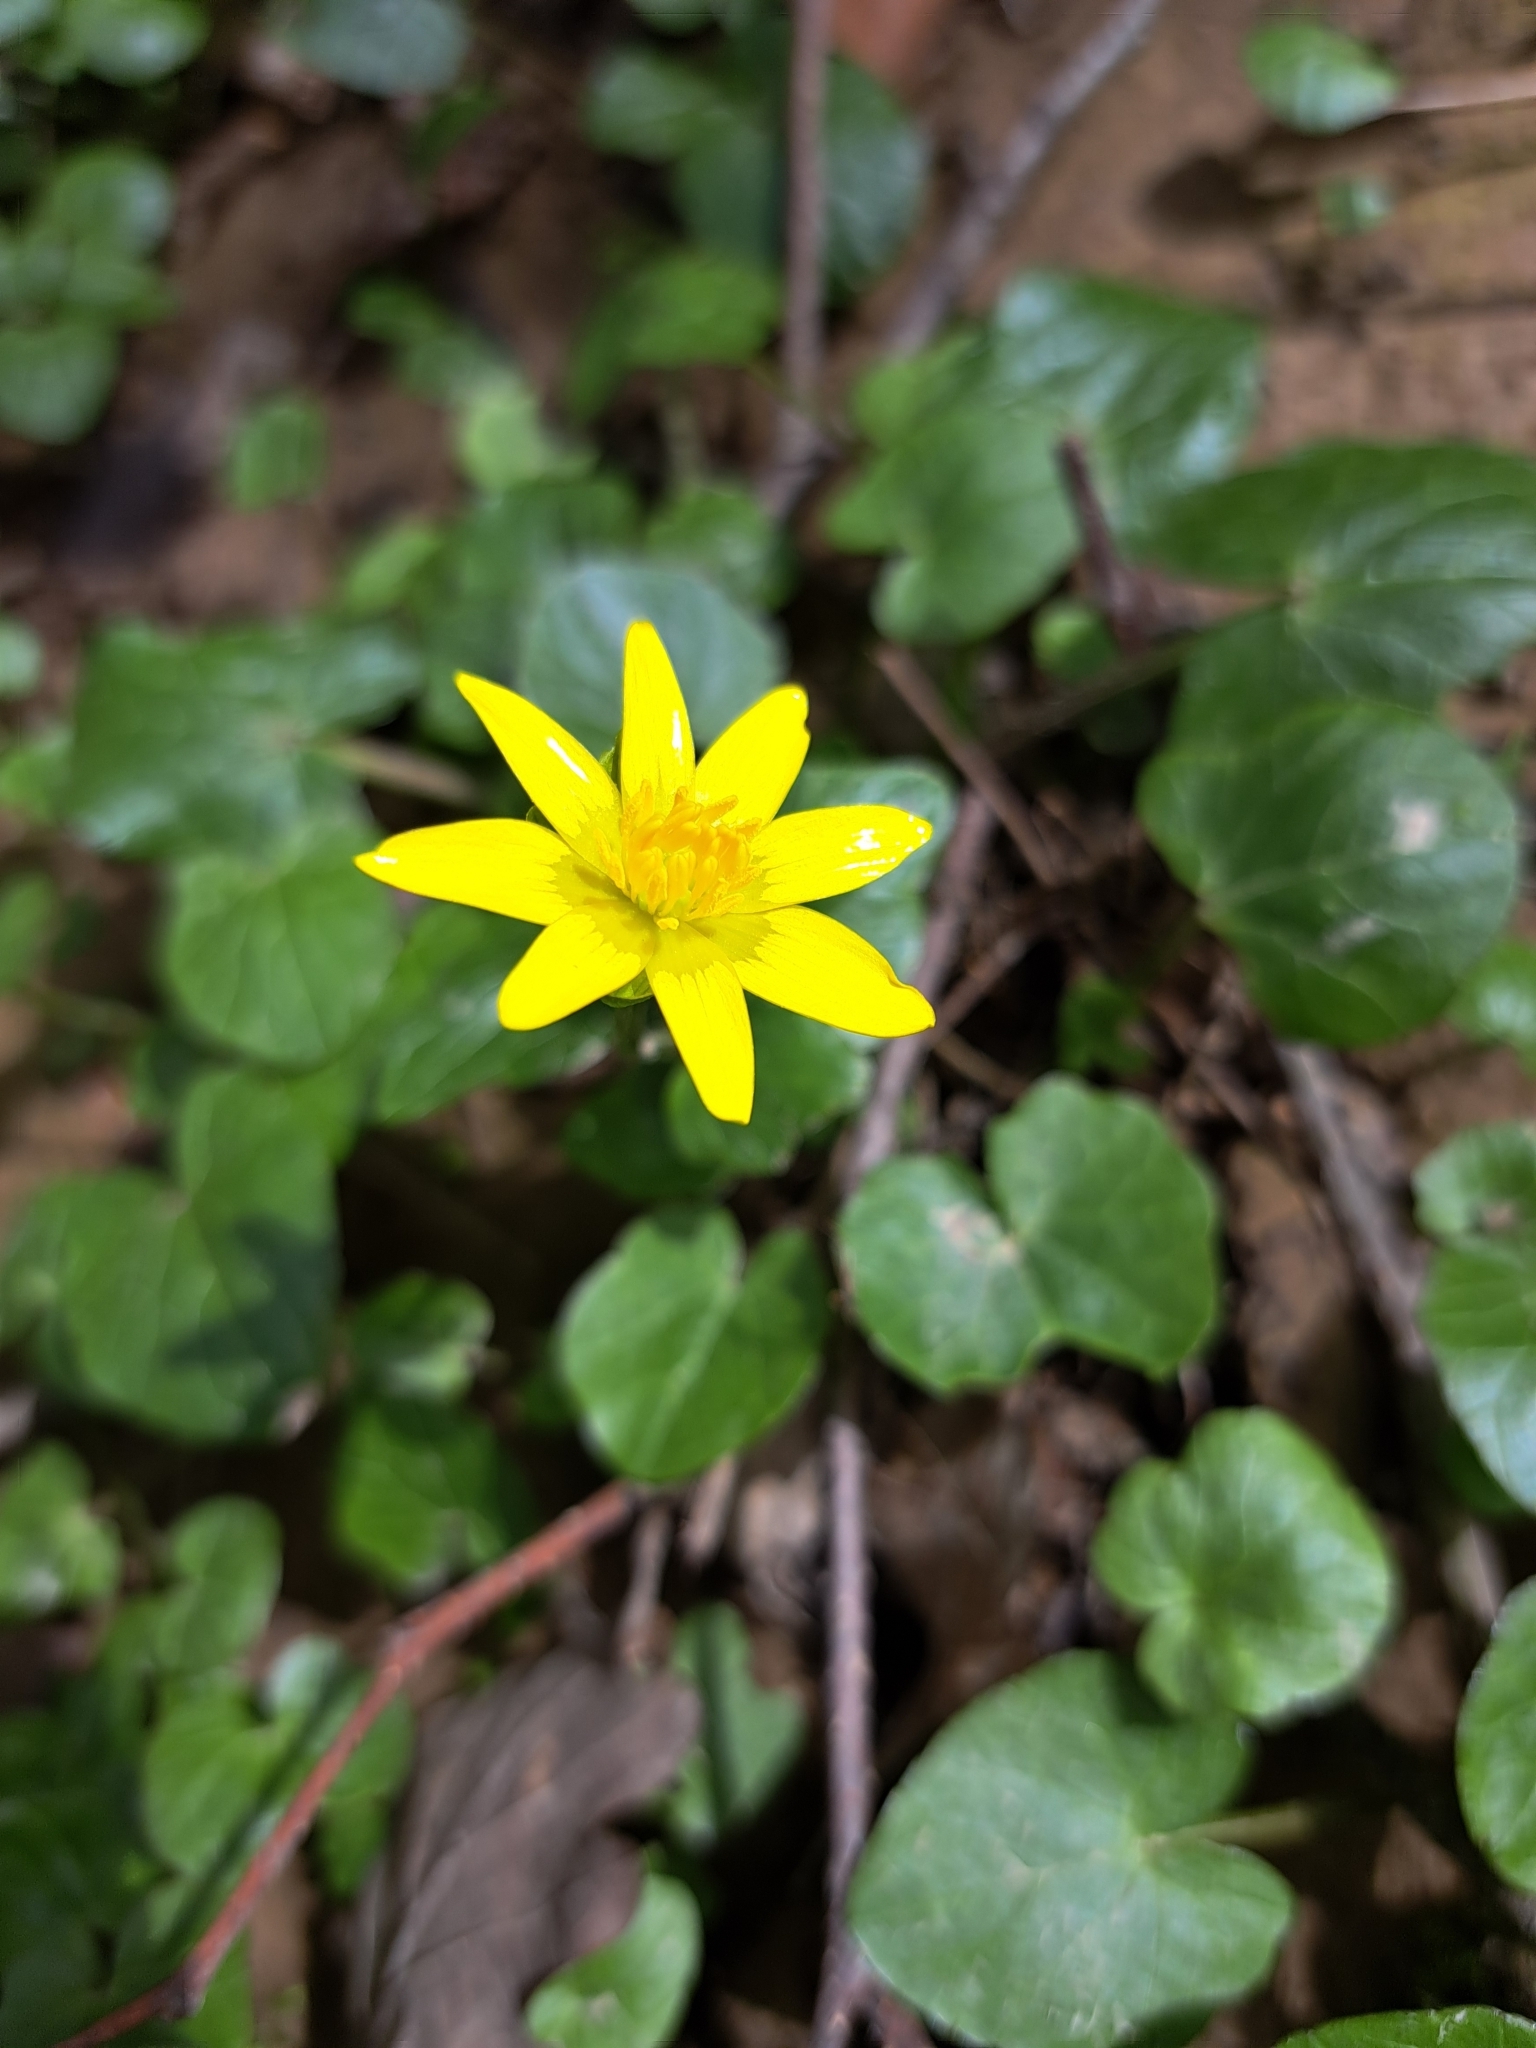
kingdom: Plantae
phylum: Tracheophyta
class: Magnoliopsida
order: Ranunculales
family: Ranunculaceae
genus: Ficaria
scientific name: Ficaria verna
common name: Lesser celandine
